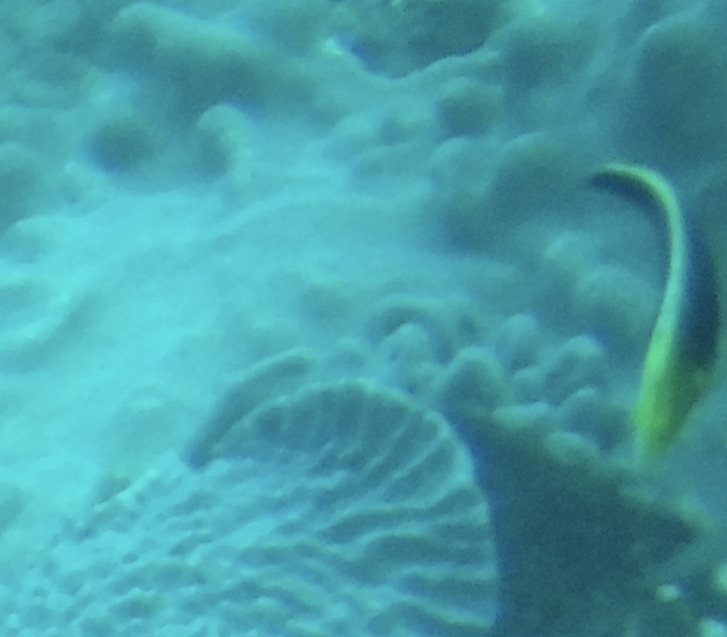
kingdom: Animalia
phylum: Chordata
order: Perciformes
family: Labridae
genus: Halichoeres
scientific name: Halichoeres iridis
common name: Rainbow wrasse
